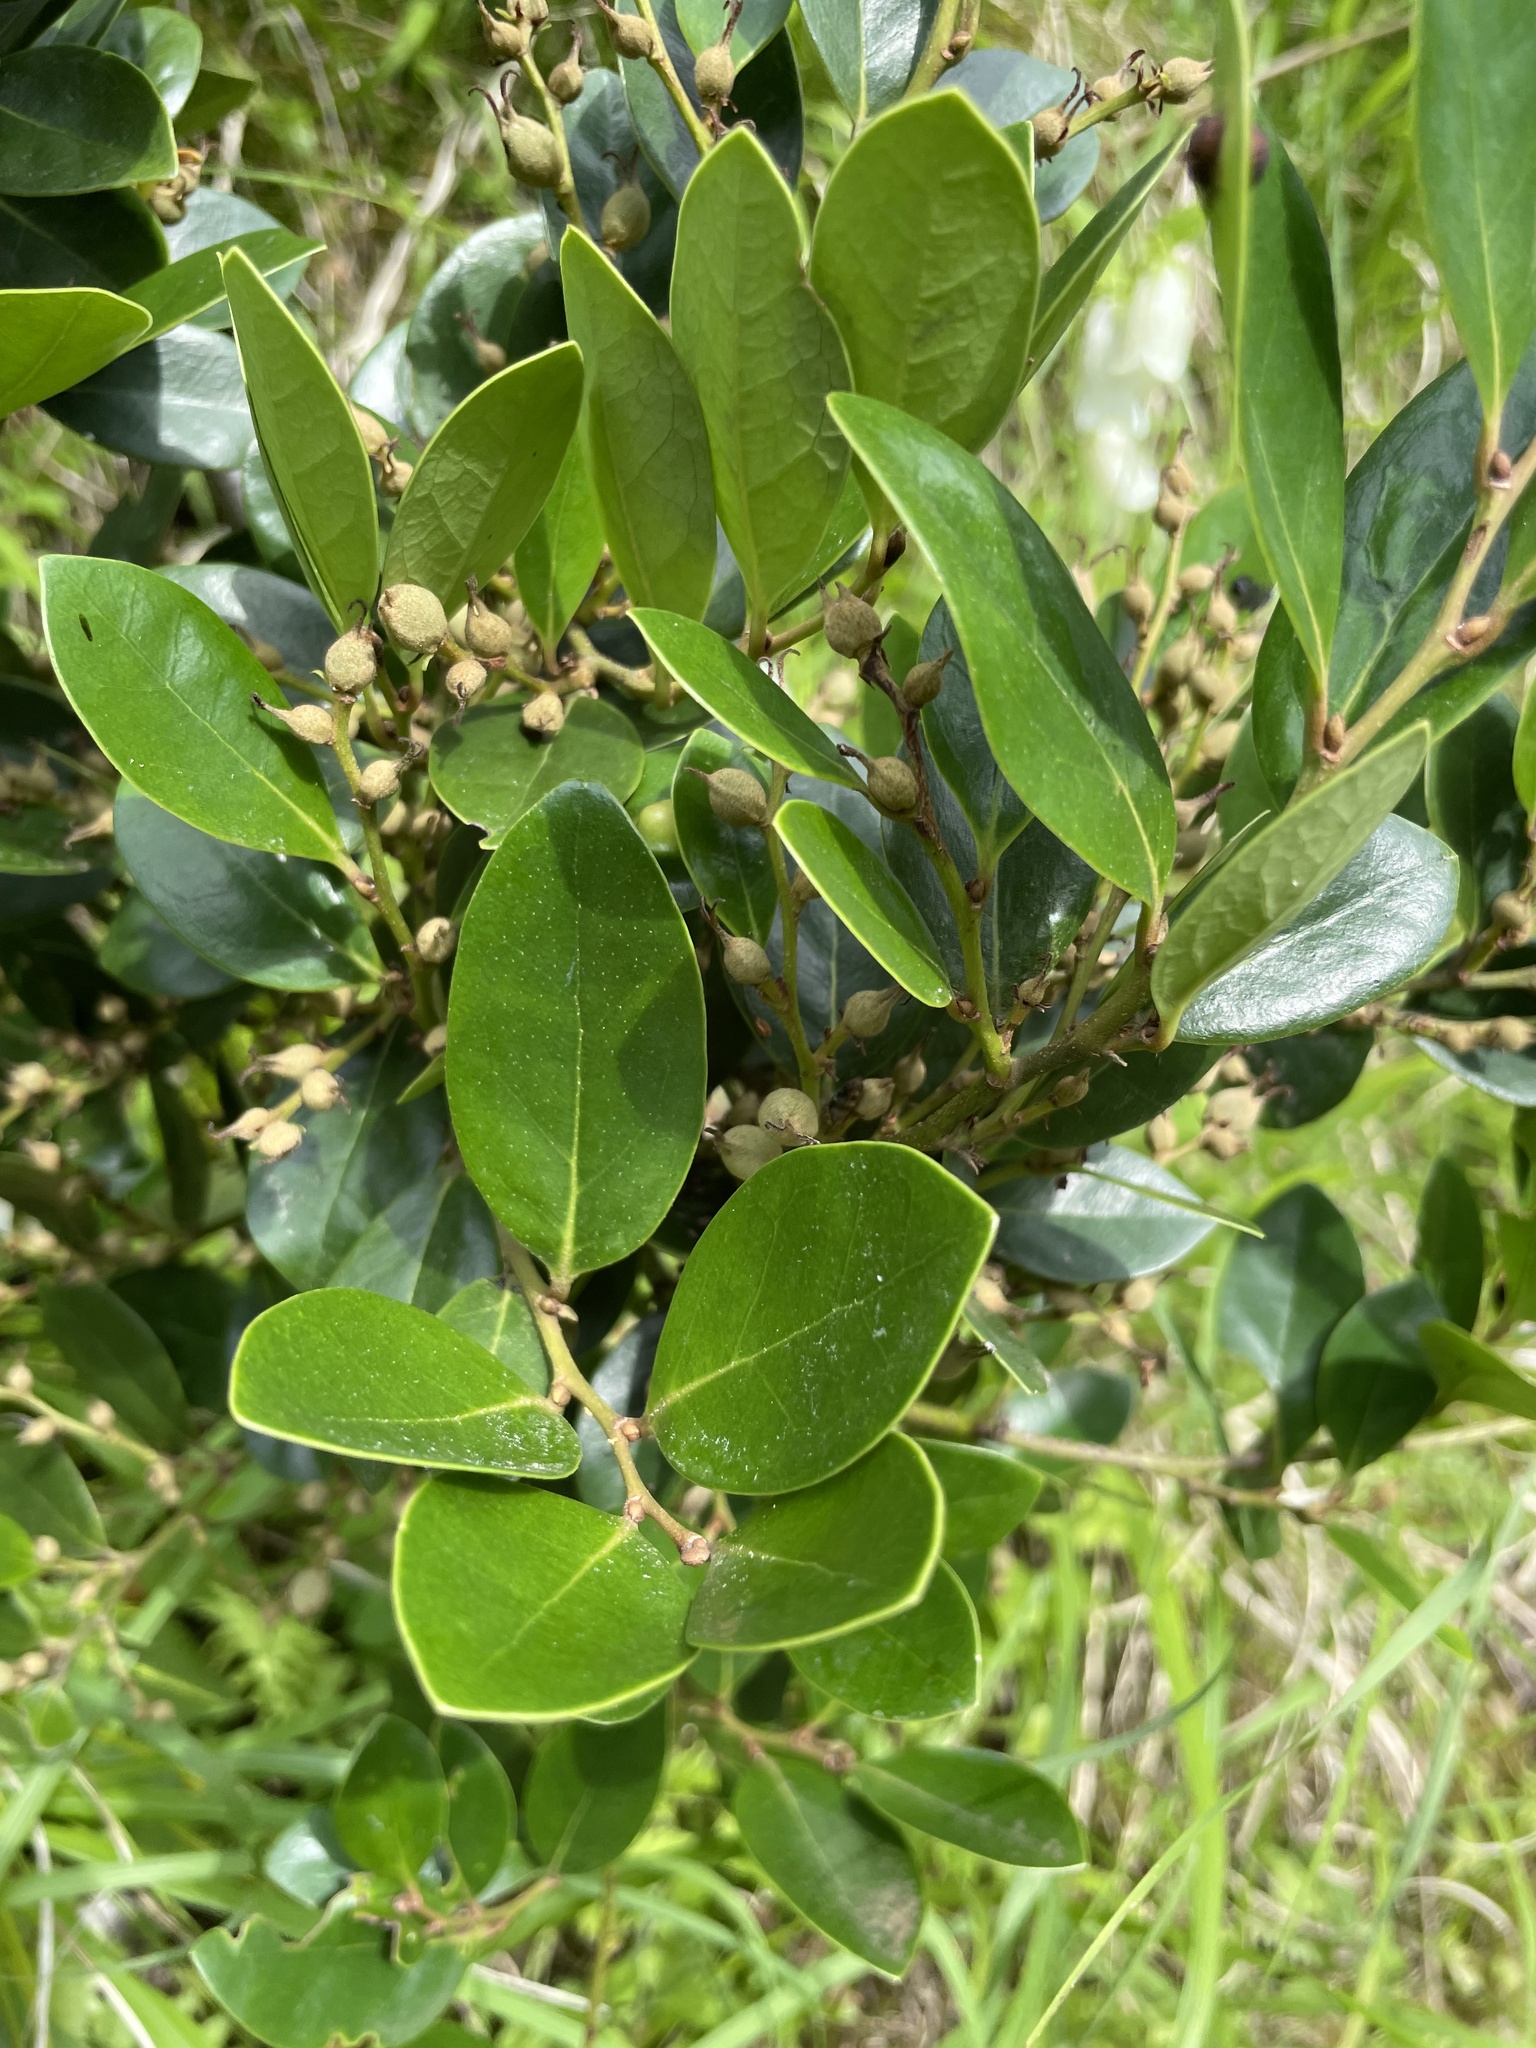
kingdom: Plantae
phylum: Tracheophyta
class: Magnoliopsida
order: Saxifragales
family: Hamamelidaceae
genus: Distylium
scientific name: Distylium racemosum
